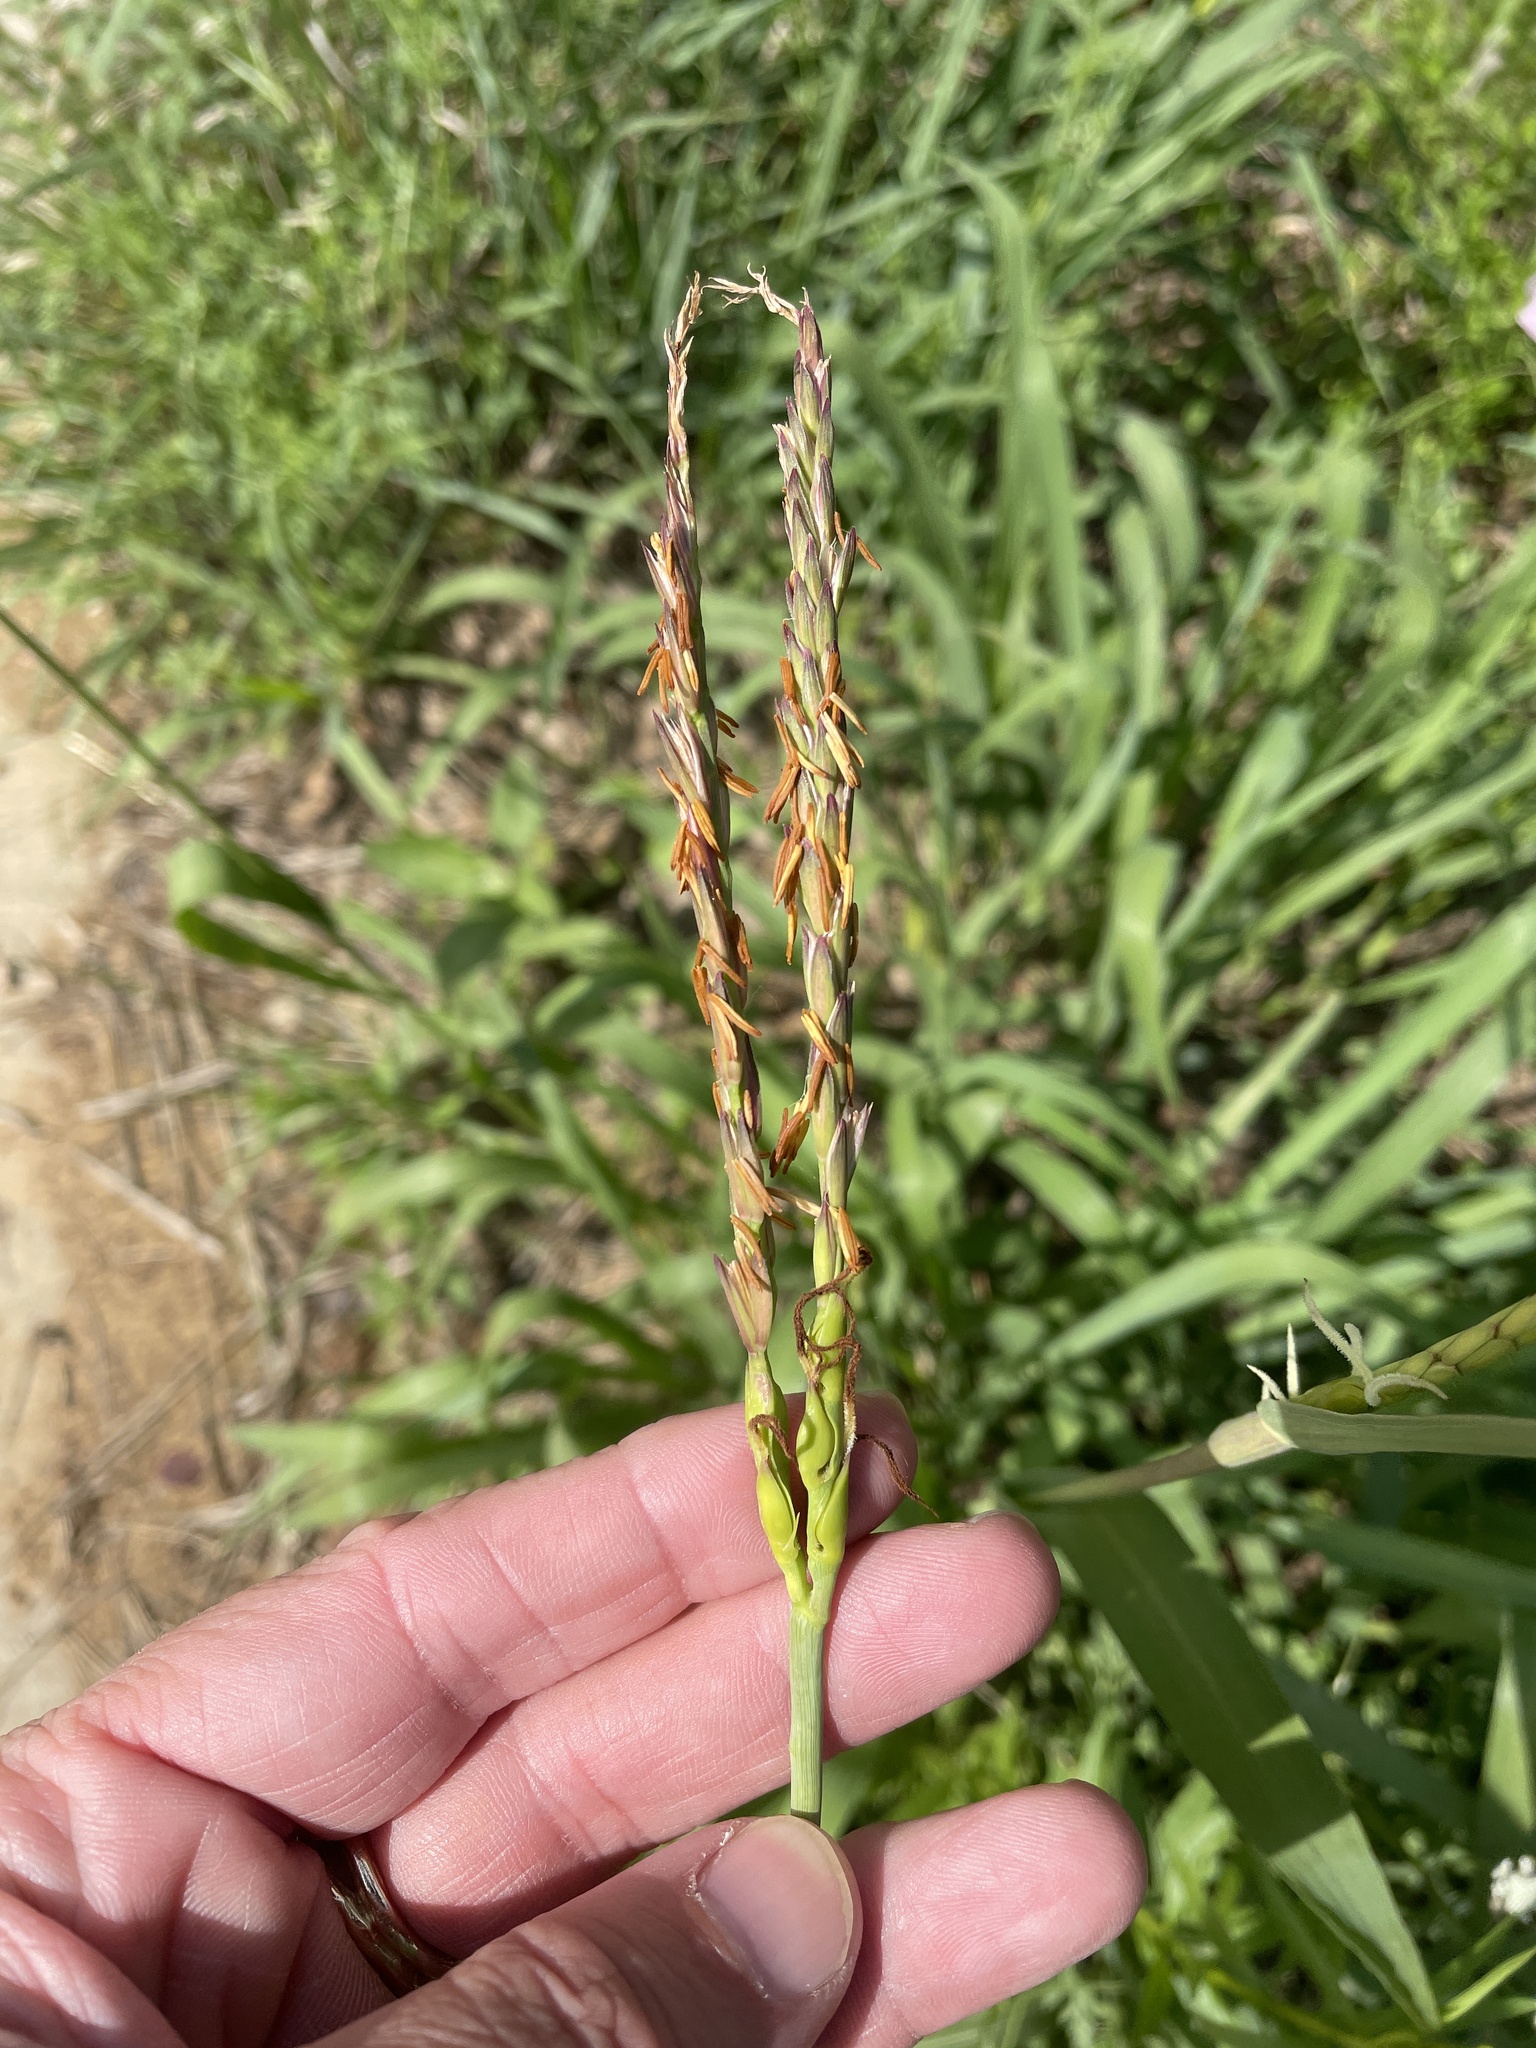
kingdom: Plantae
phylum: Tracheophyta
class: Liliopsida
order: Poales
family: Poaceae
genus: Tripsacum
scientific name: Tripsacum dactyloides
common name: Buffalo-grass
